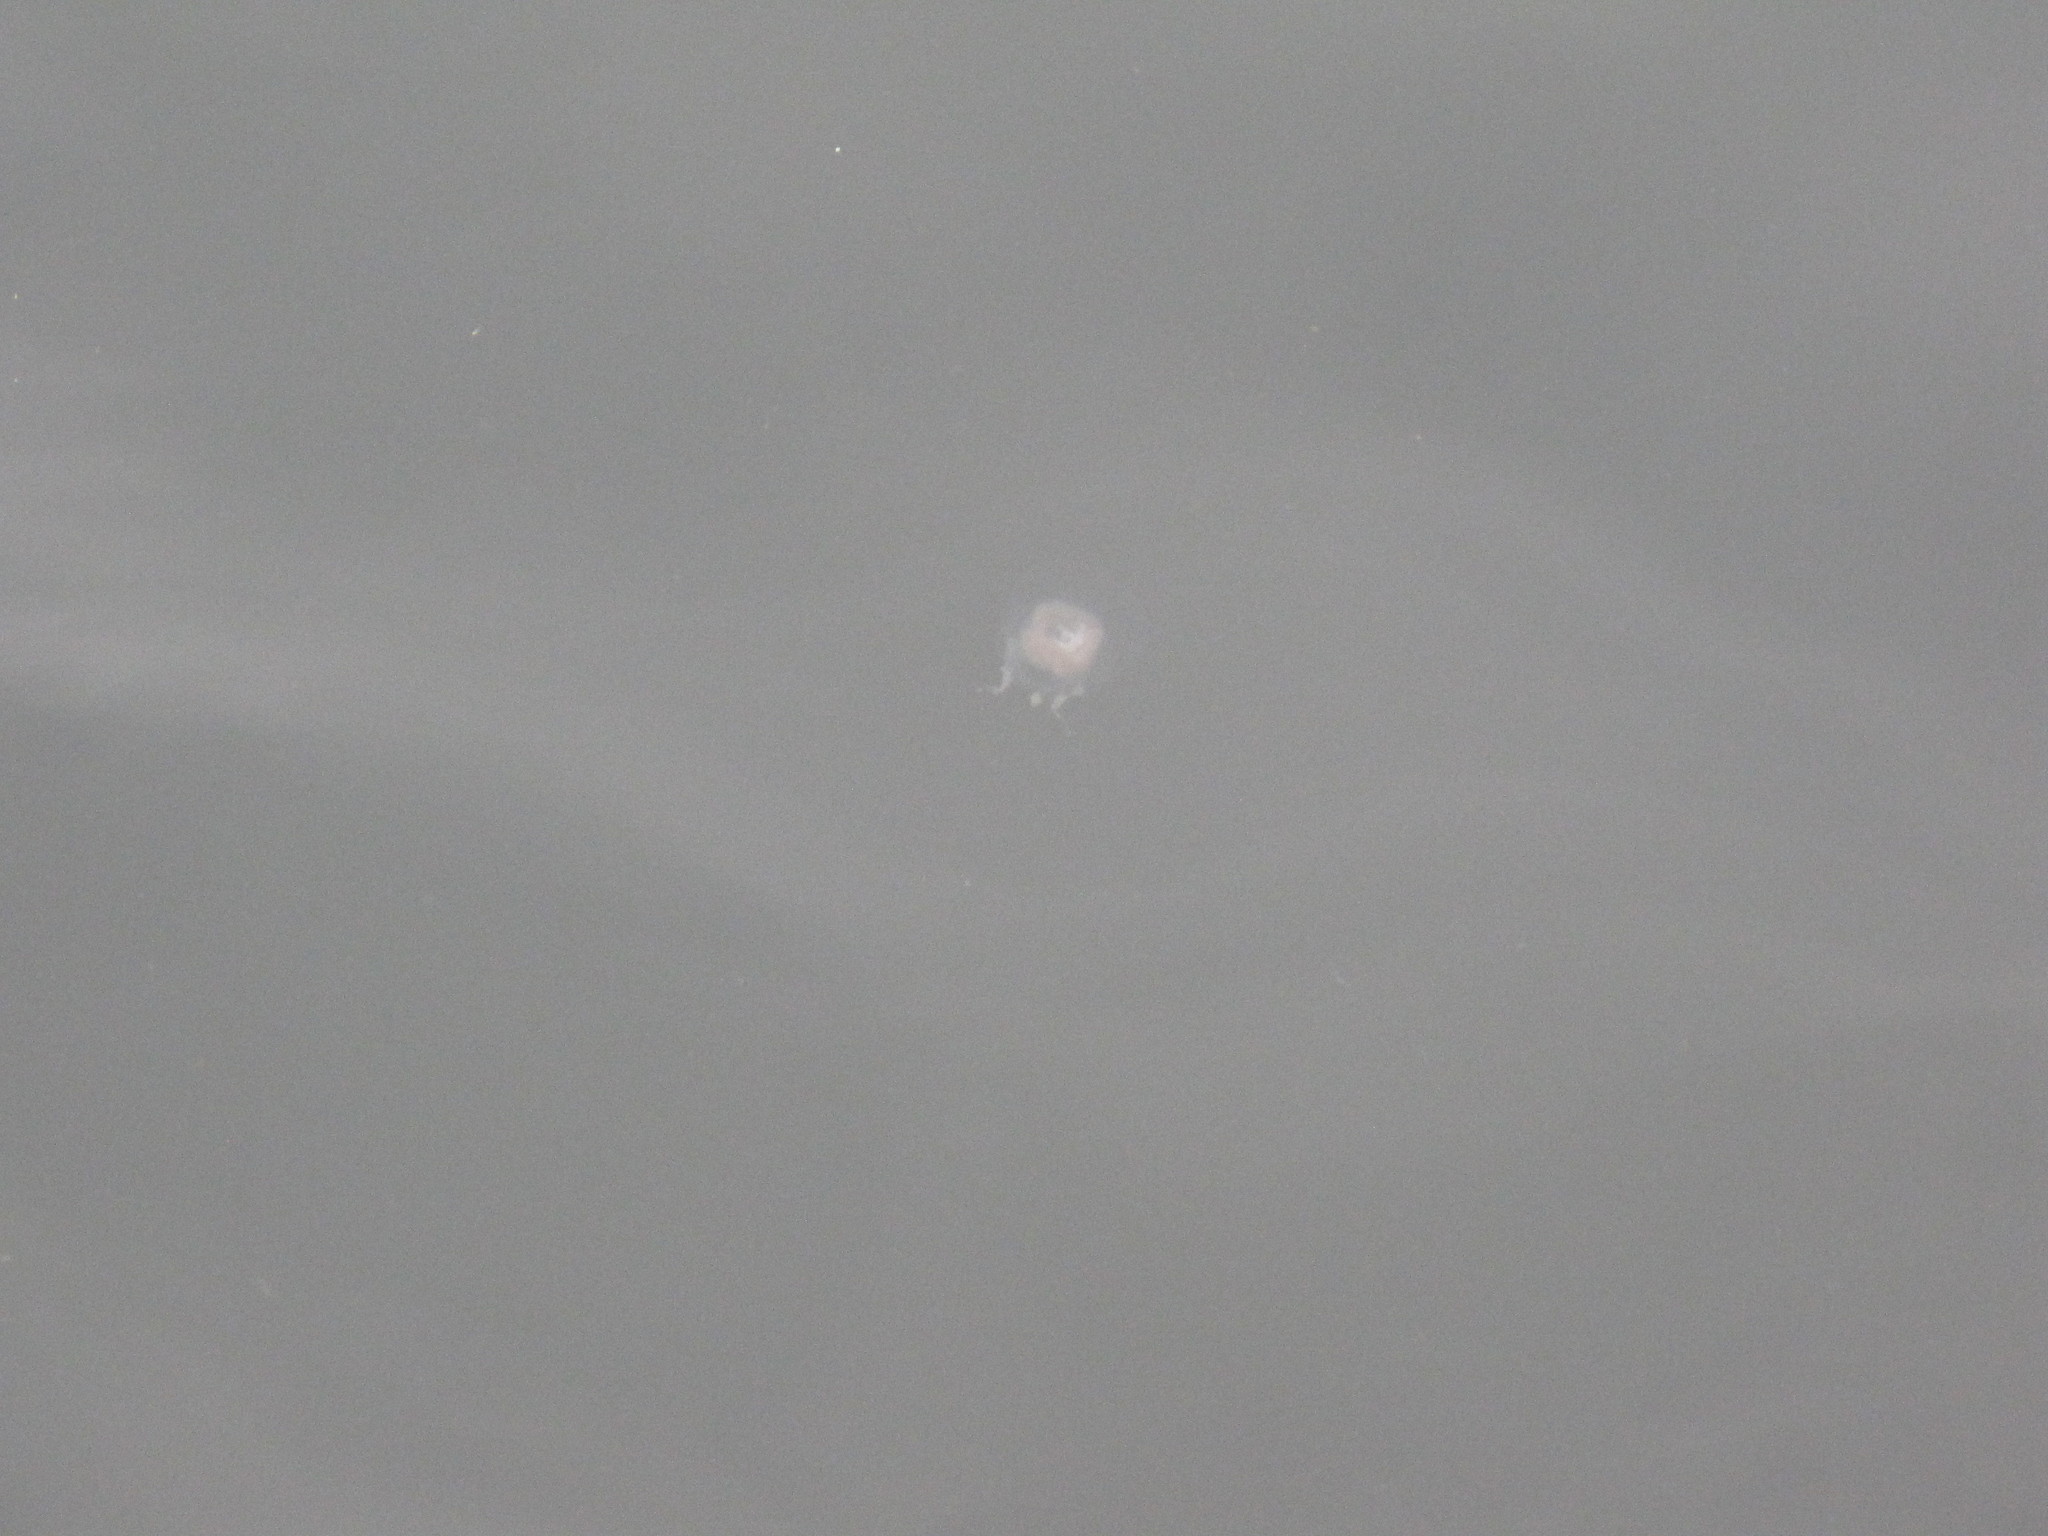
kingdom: Animalia
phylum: Cnidaria
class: Hydrozoa
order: Anthoathecata
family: Corynidae
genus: Polyorchis
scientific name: Polyorchis penicillatus
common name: Penicillate jellyfish
